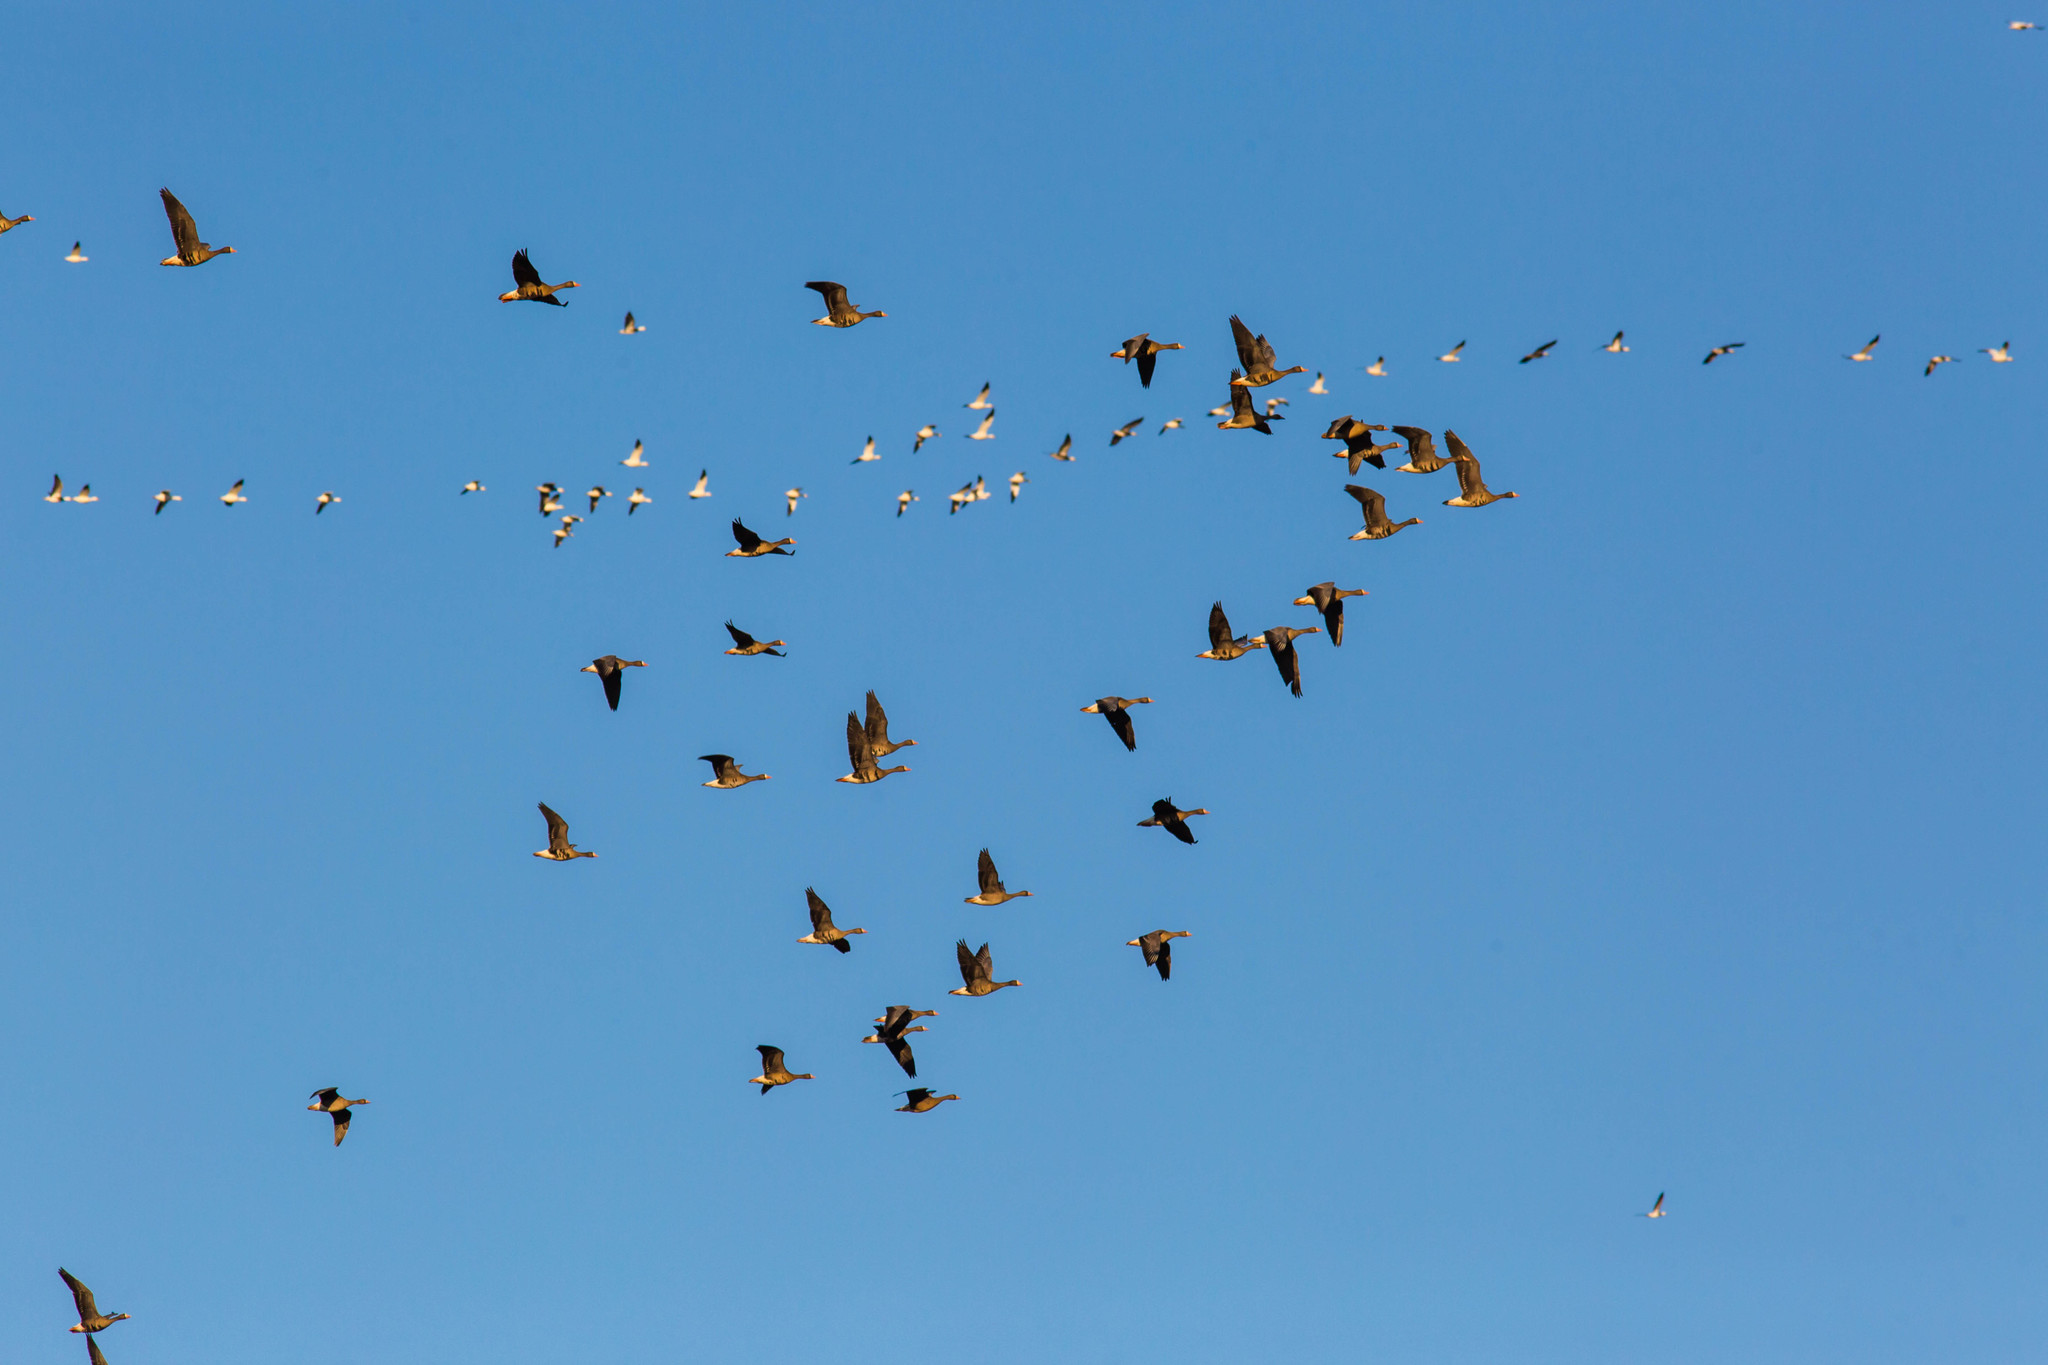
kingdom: Animalia
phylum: Chordata
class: Aves
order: Anseriformes
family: Anatidae
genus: Anser
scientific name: Anser albifrons
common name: Greater white-fronted goose
